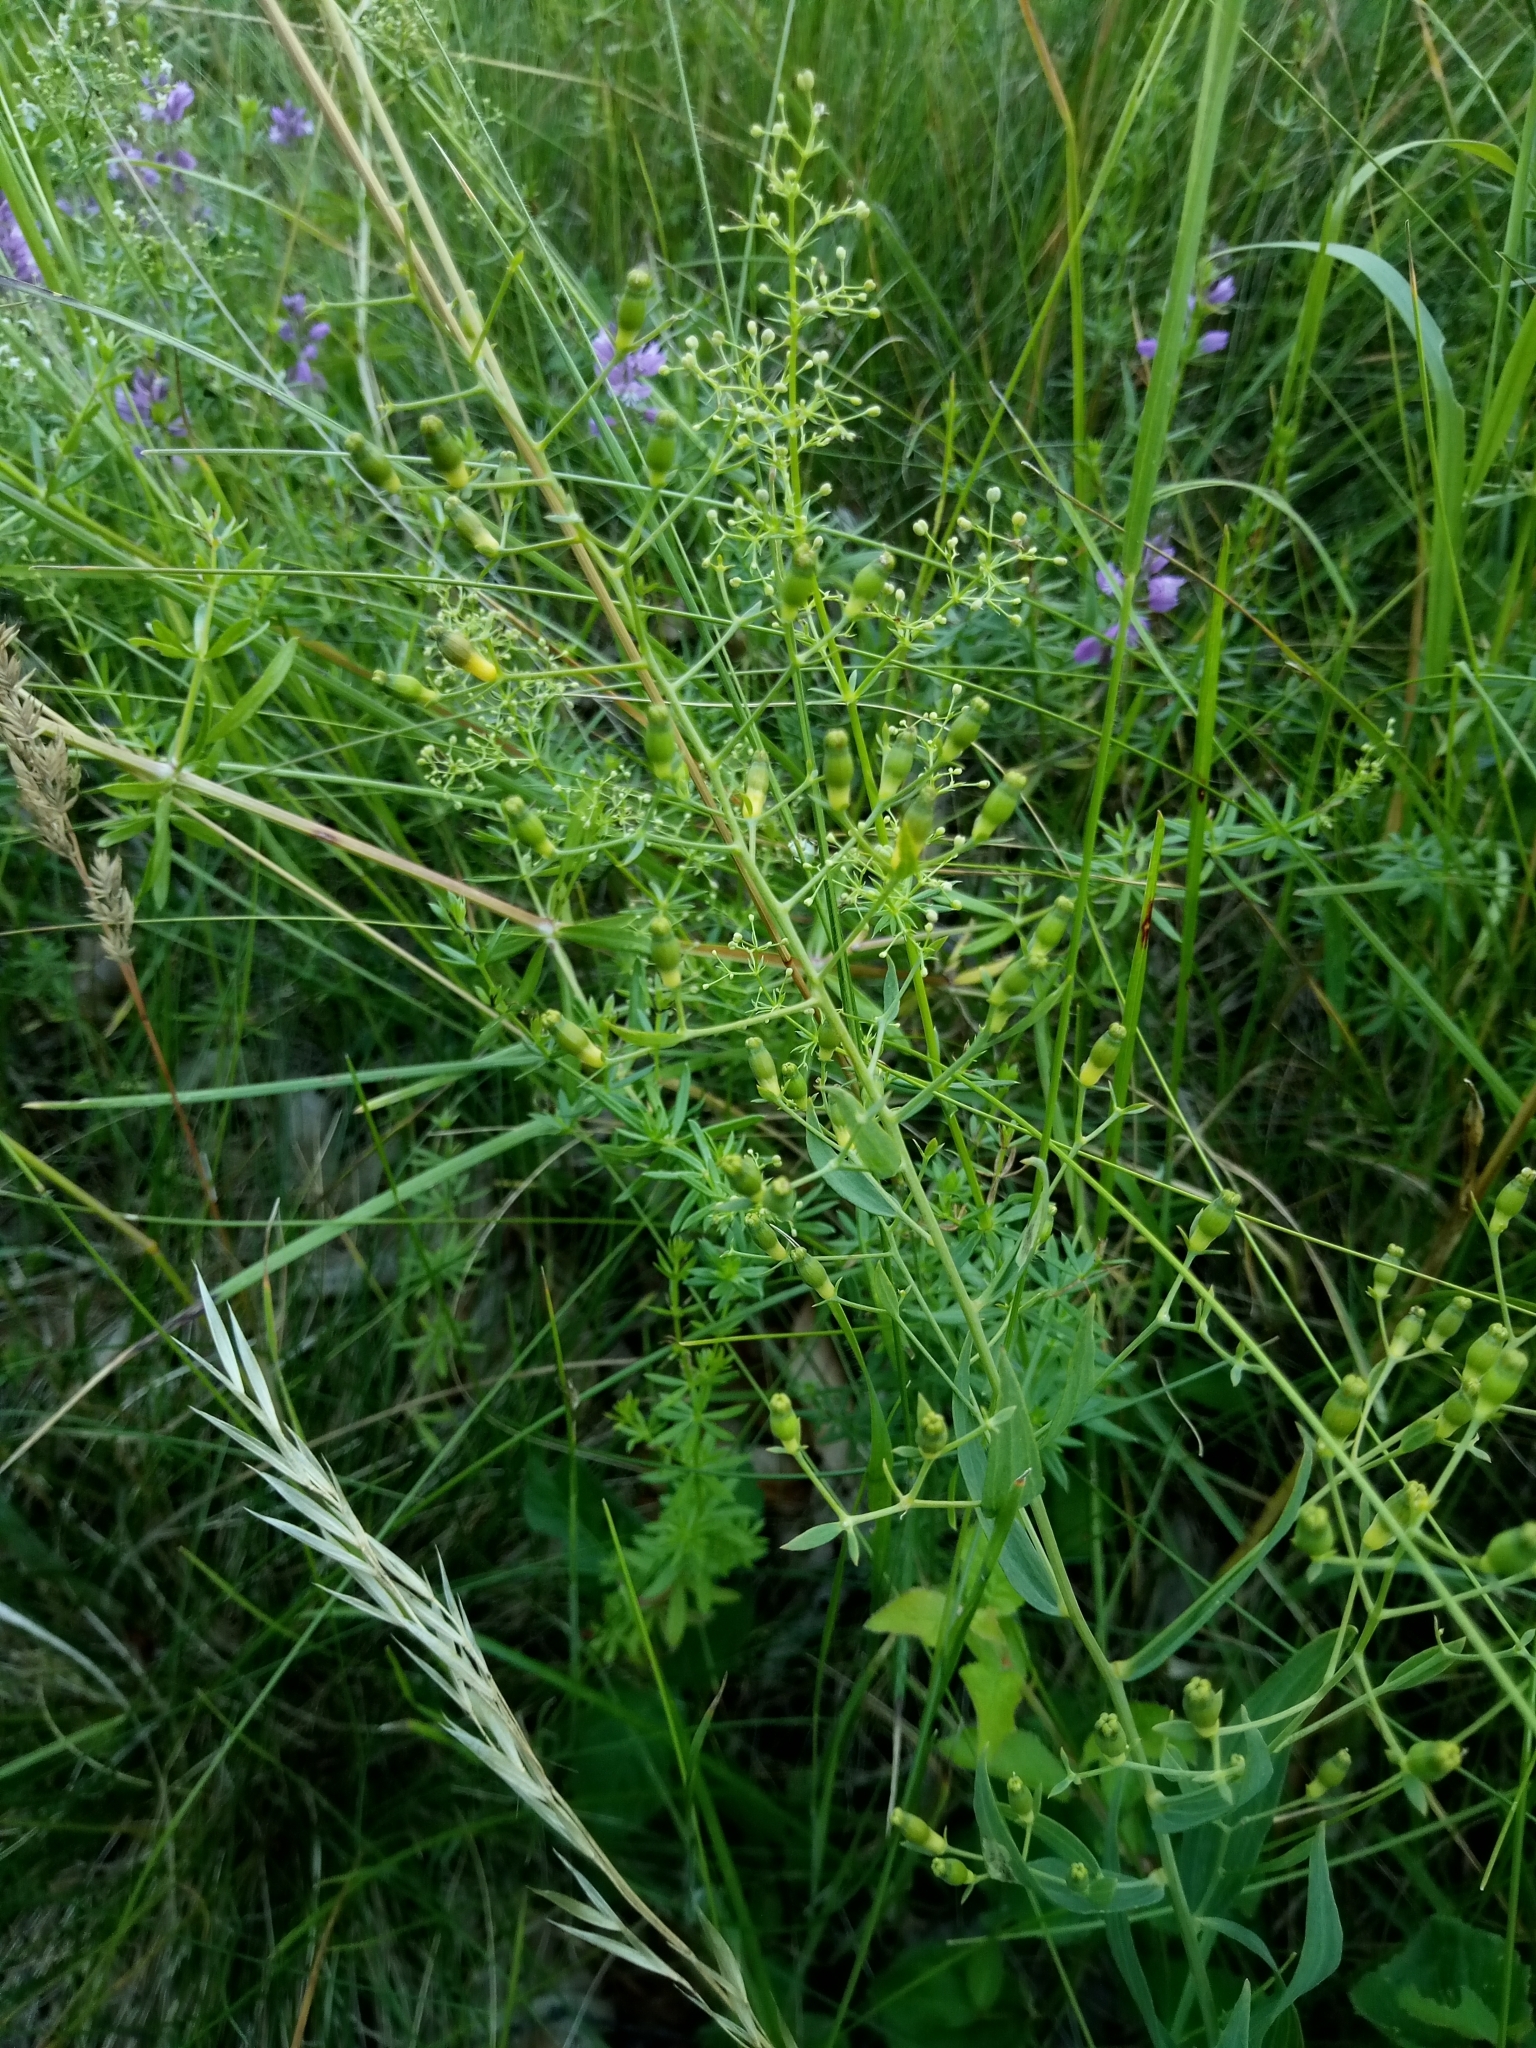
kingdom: Plantae
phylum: Tracheophyta
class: Magnoliopsida
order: Santalales
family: Thesiaceae
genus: Thesium
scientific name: Thesium bavarum
